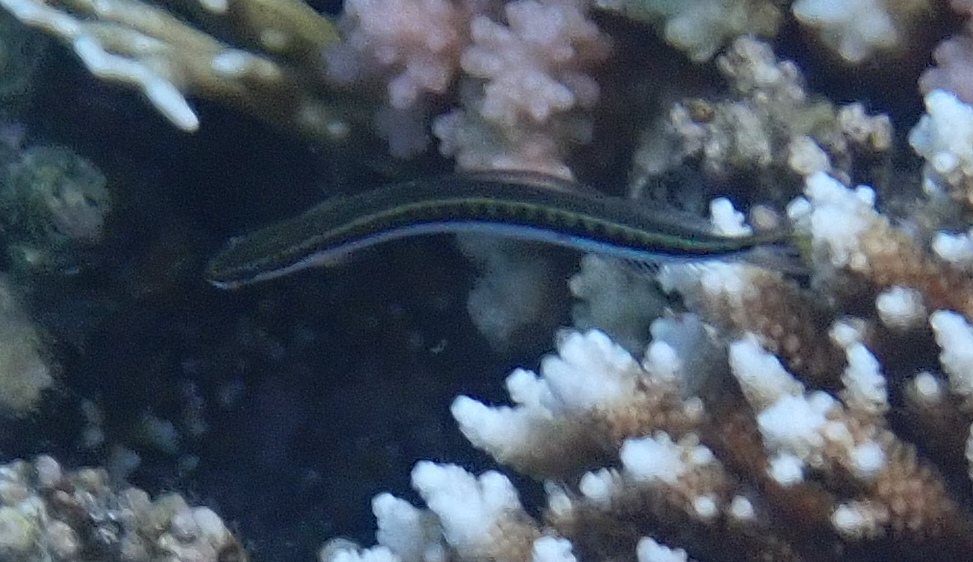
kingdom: Animalia
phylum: Chordata
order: Perciformes
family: Blenniidae
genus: Plagiotremus
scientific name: Plagiotremus tapeinosoma
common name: Hit and run blenny
